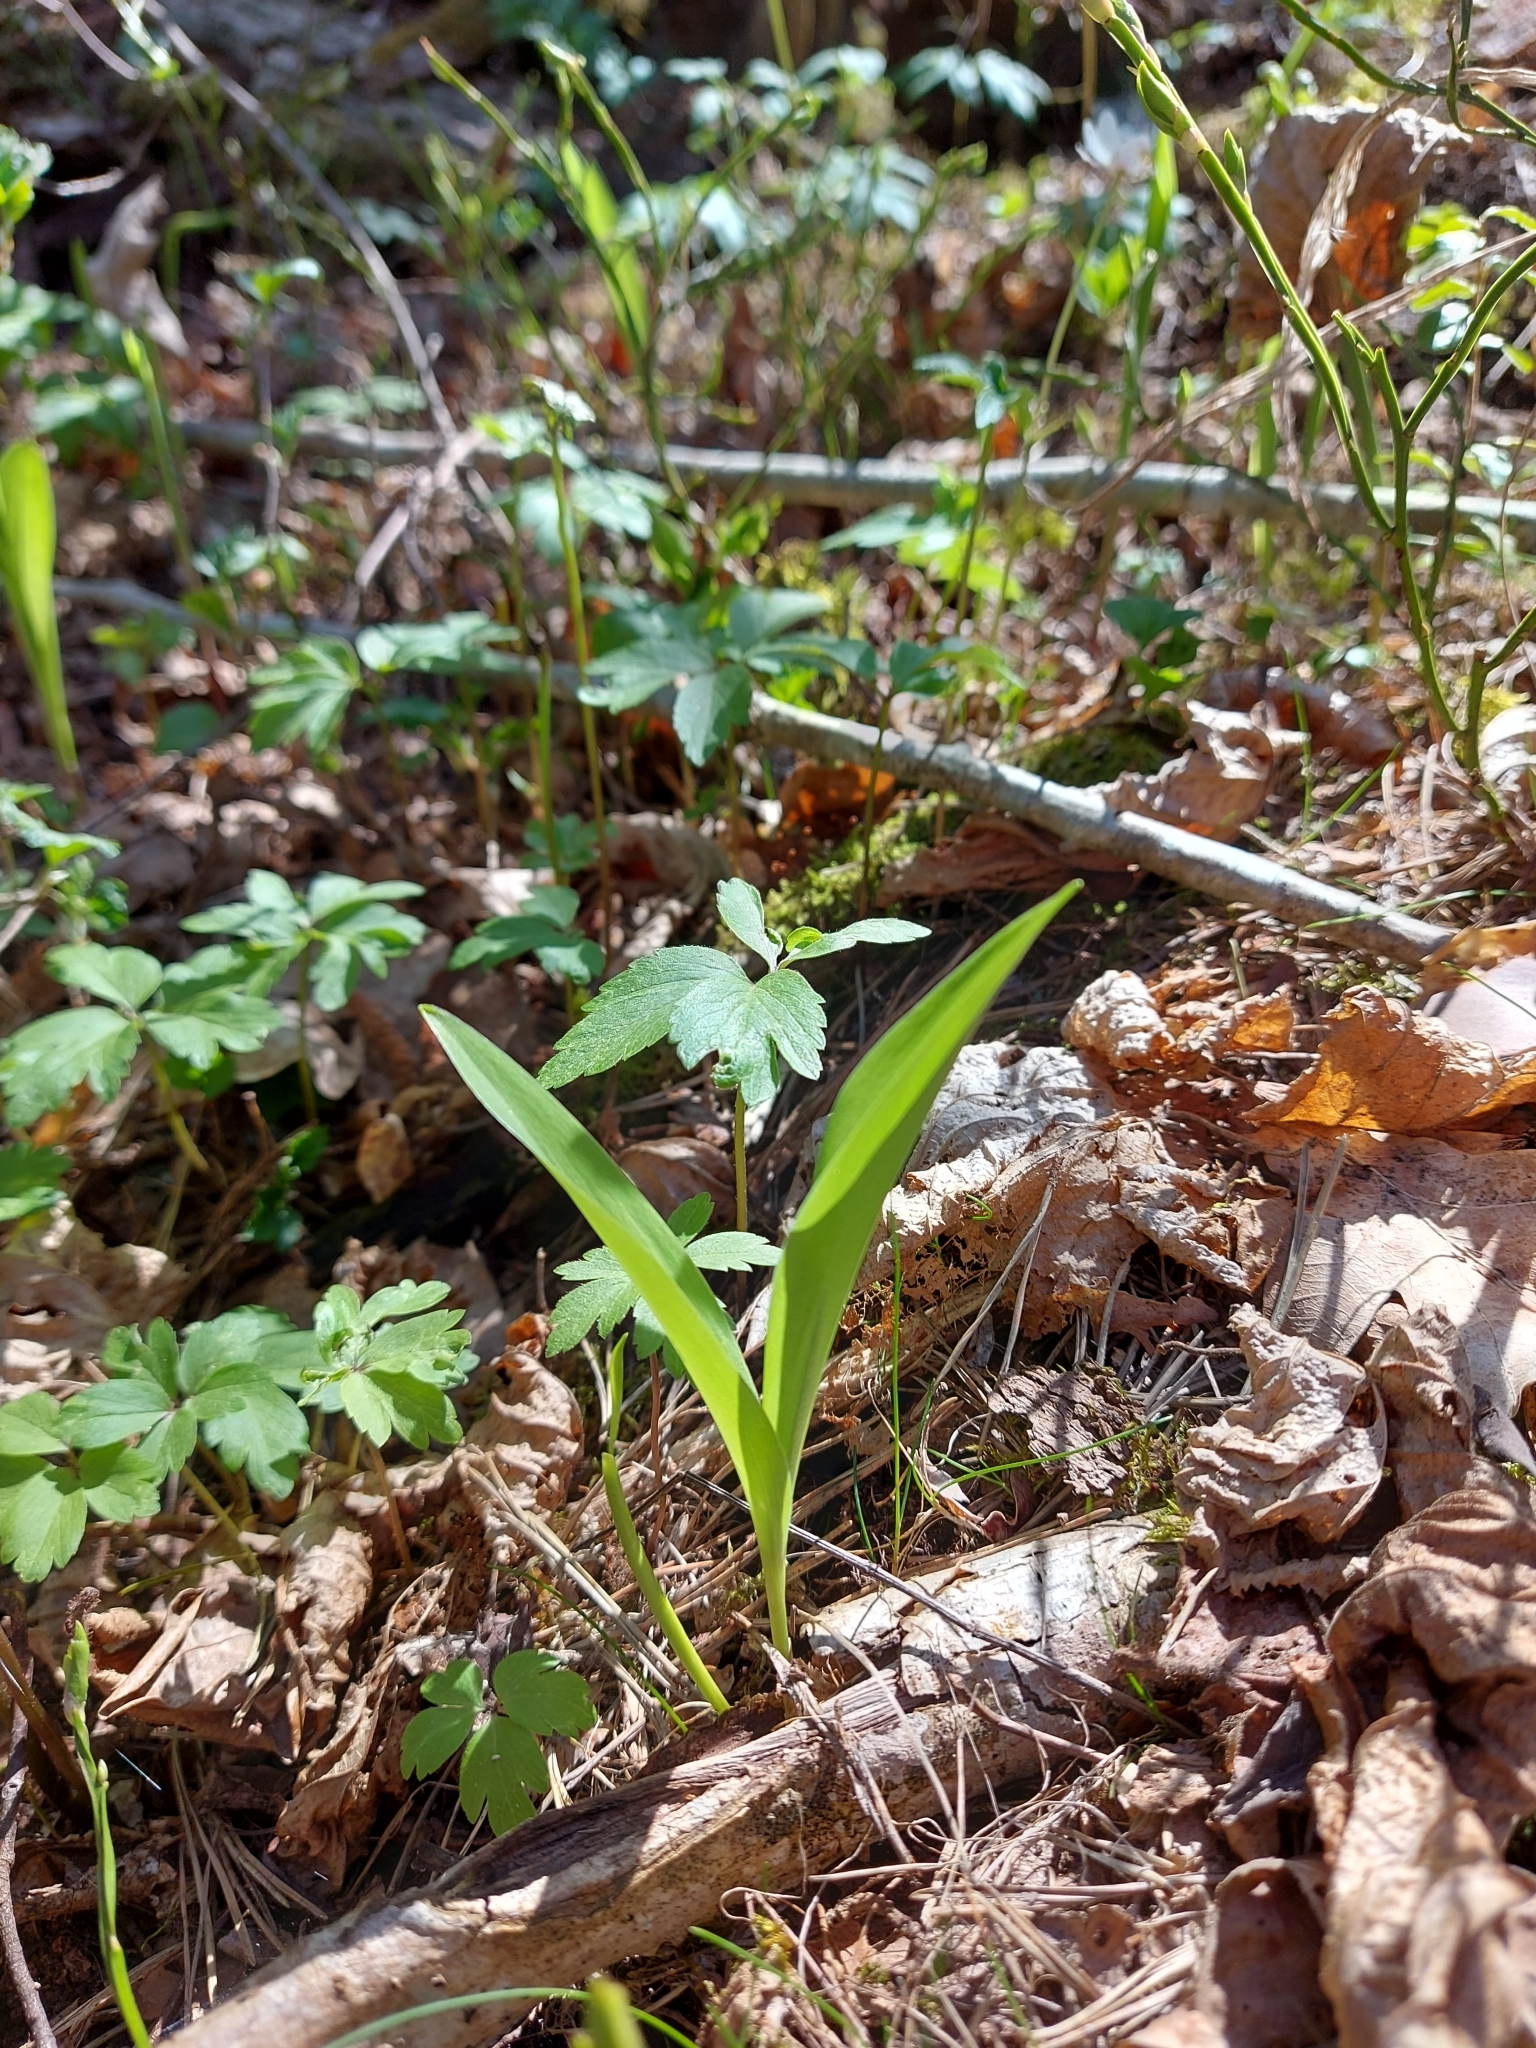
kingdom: Plantae
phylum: Tracheophyta
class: Liliopsida
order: Asparagales
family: Asparagaceae
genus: Convallaria
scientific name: Convallaria majalis
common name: Lily-of-the-valley
